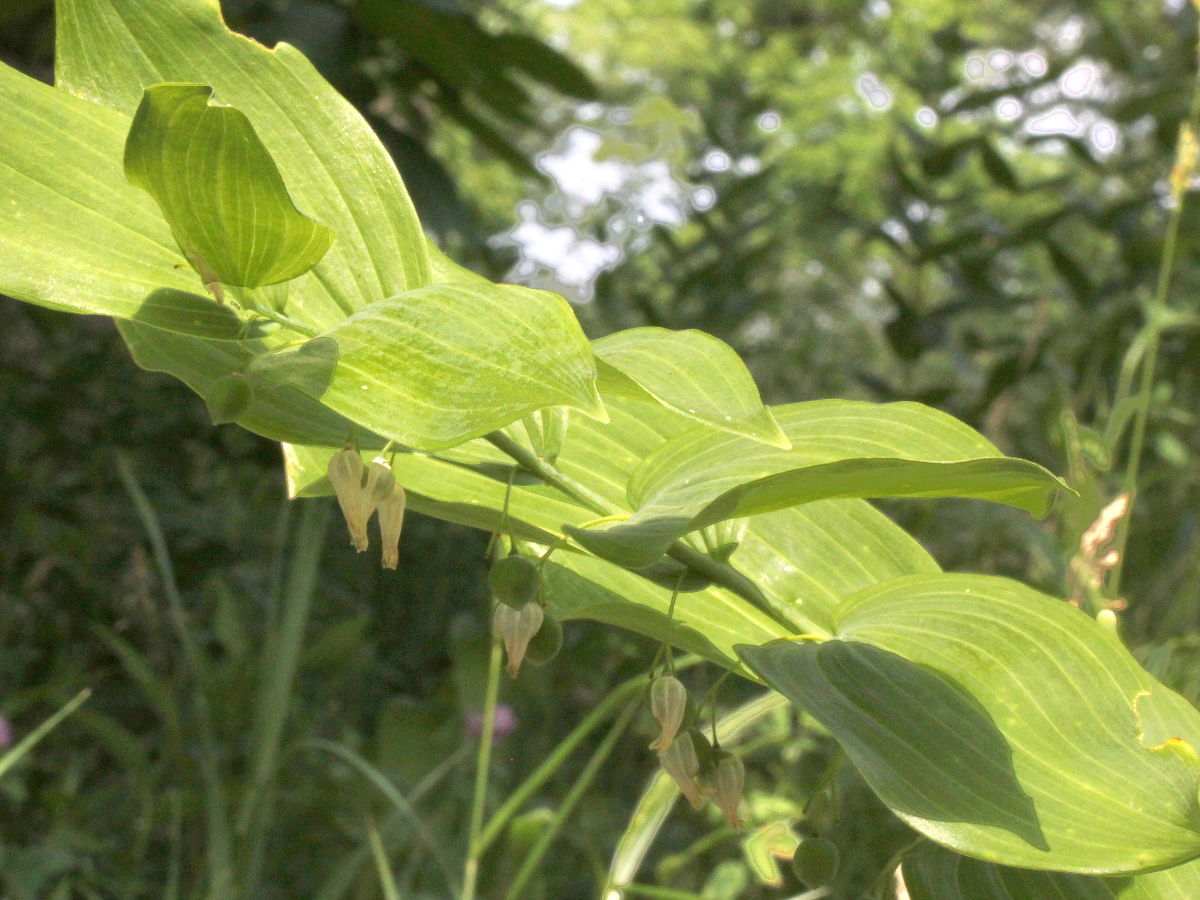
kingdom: Plantae
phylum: Tracheophyta
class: Liliopsida
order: Asparagales
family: Asparagaceae
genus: Polygonatum
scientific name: Polygonatum biflorum
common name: American solomon's-seal
